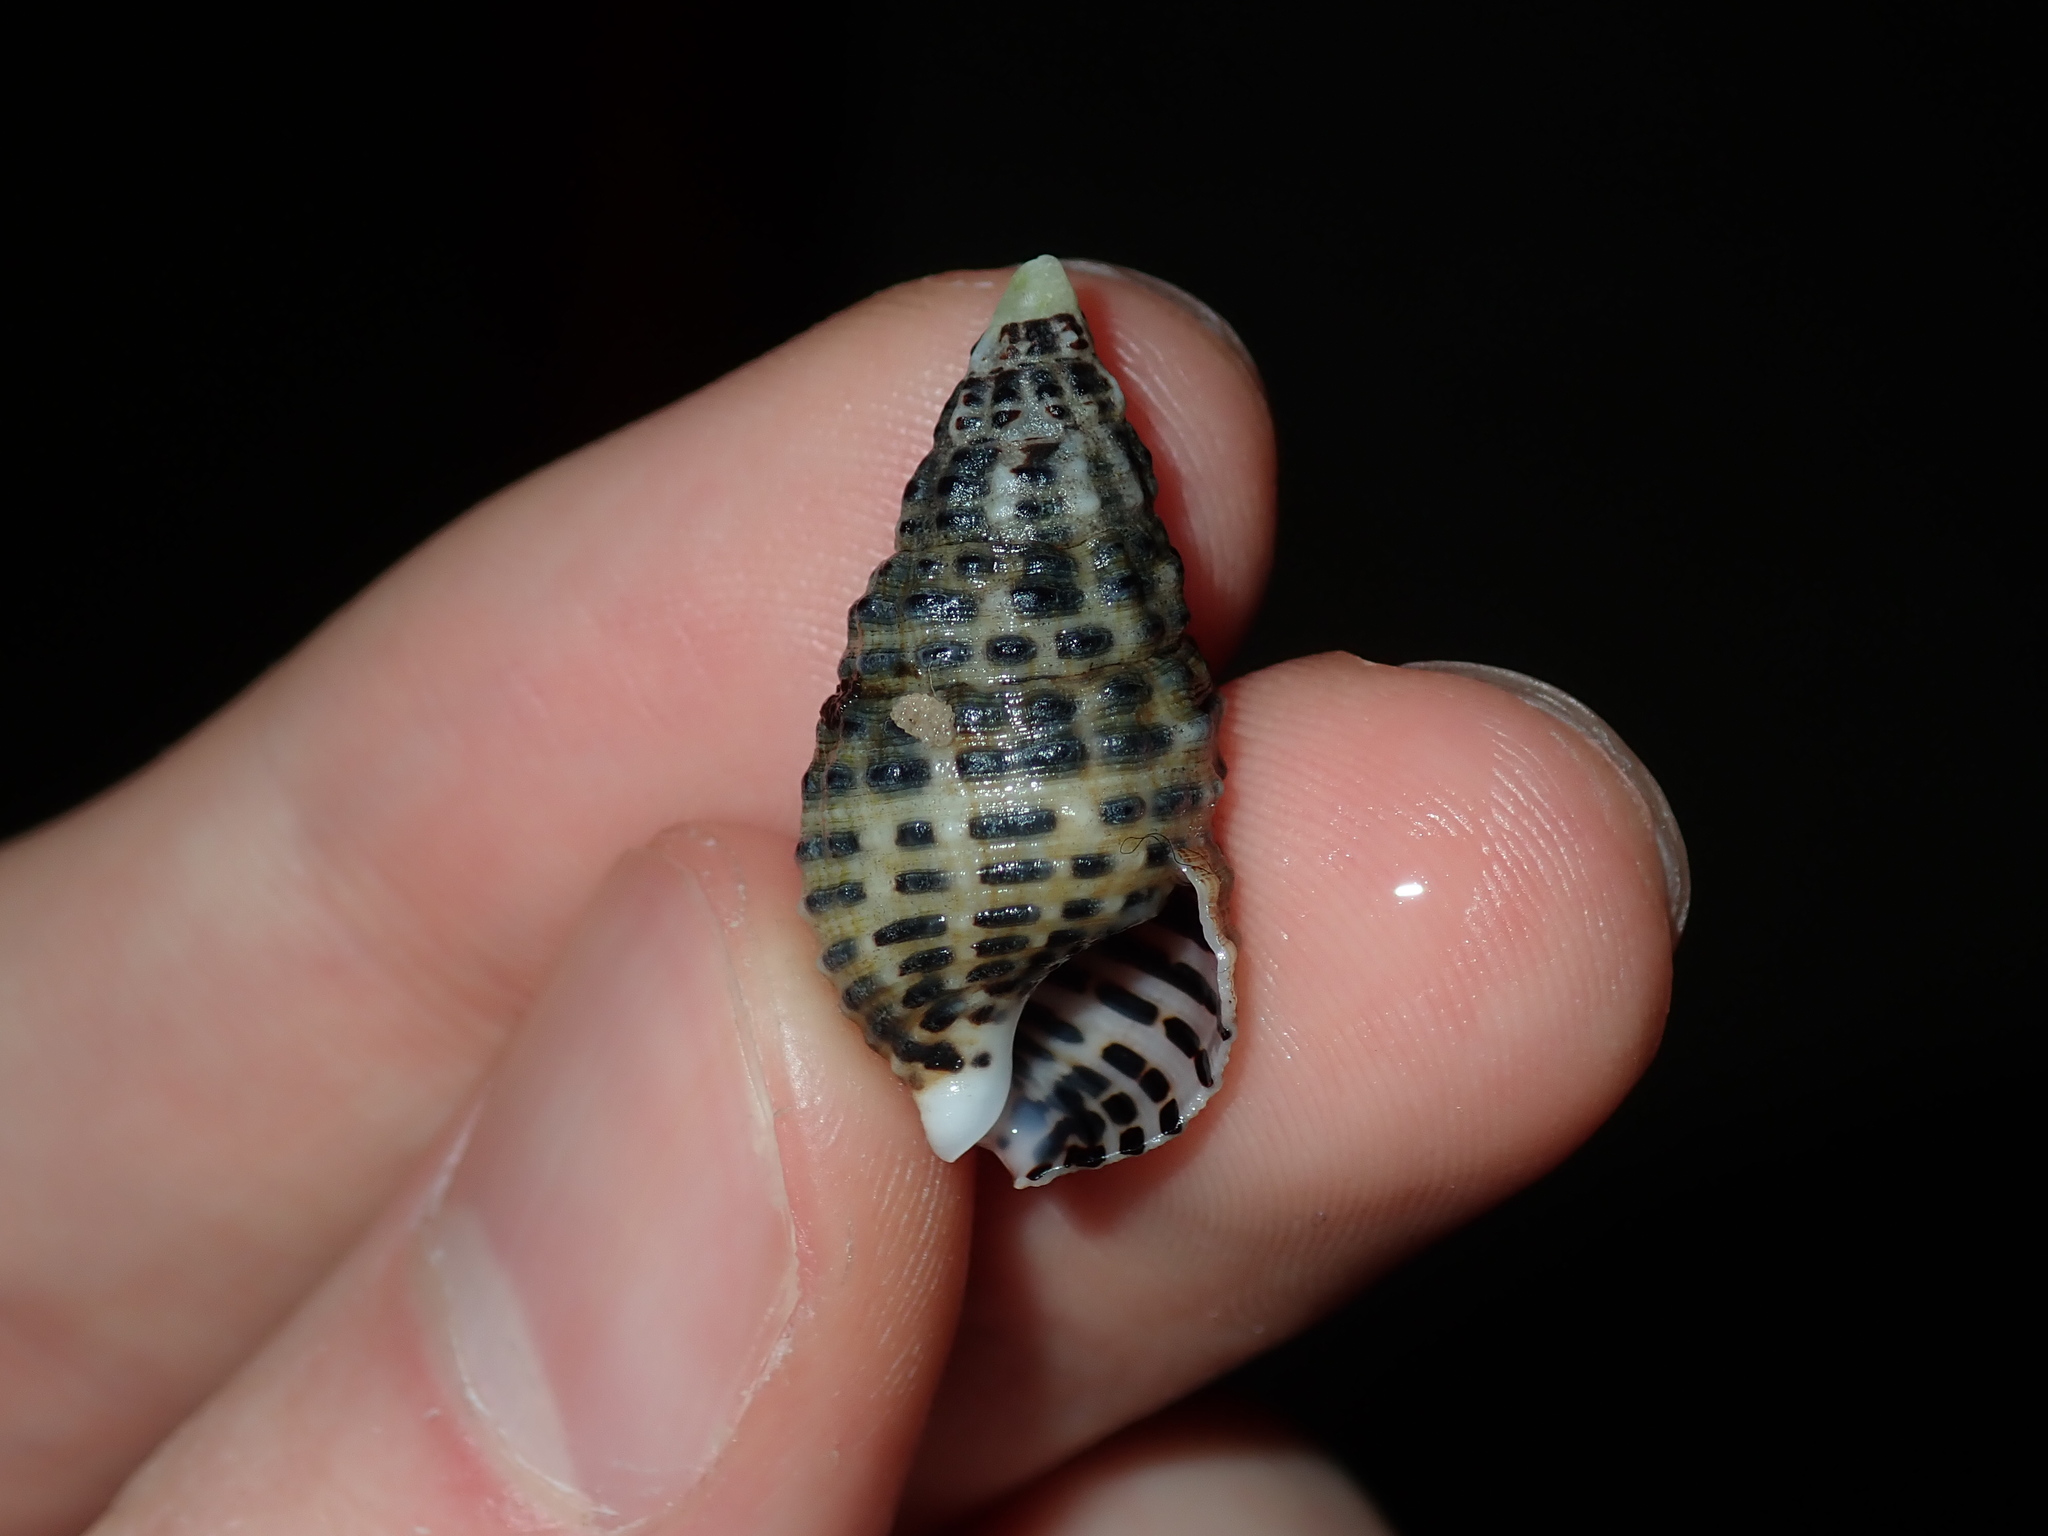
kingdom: Animalia
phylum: Mollusca
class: Gastropoda
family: Cerithiidae
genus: Clypeomorus
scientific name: Clypeomorus petrosa
